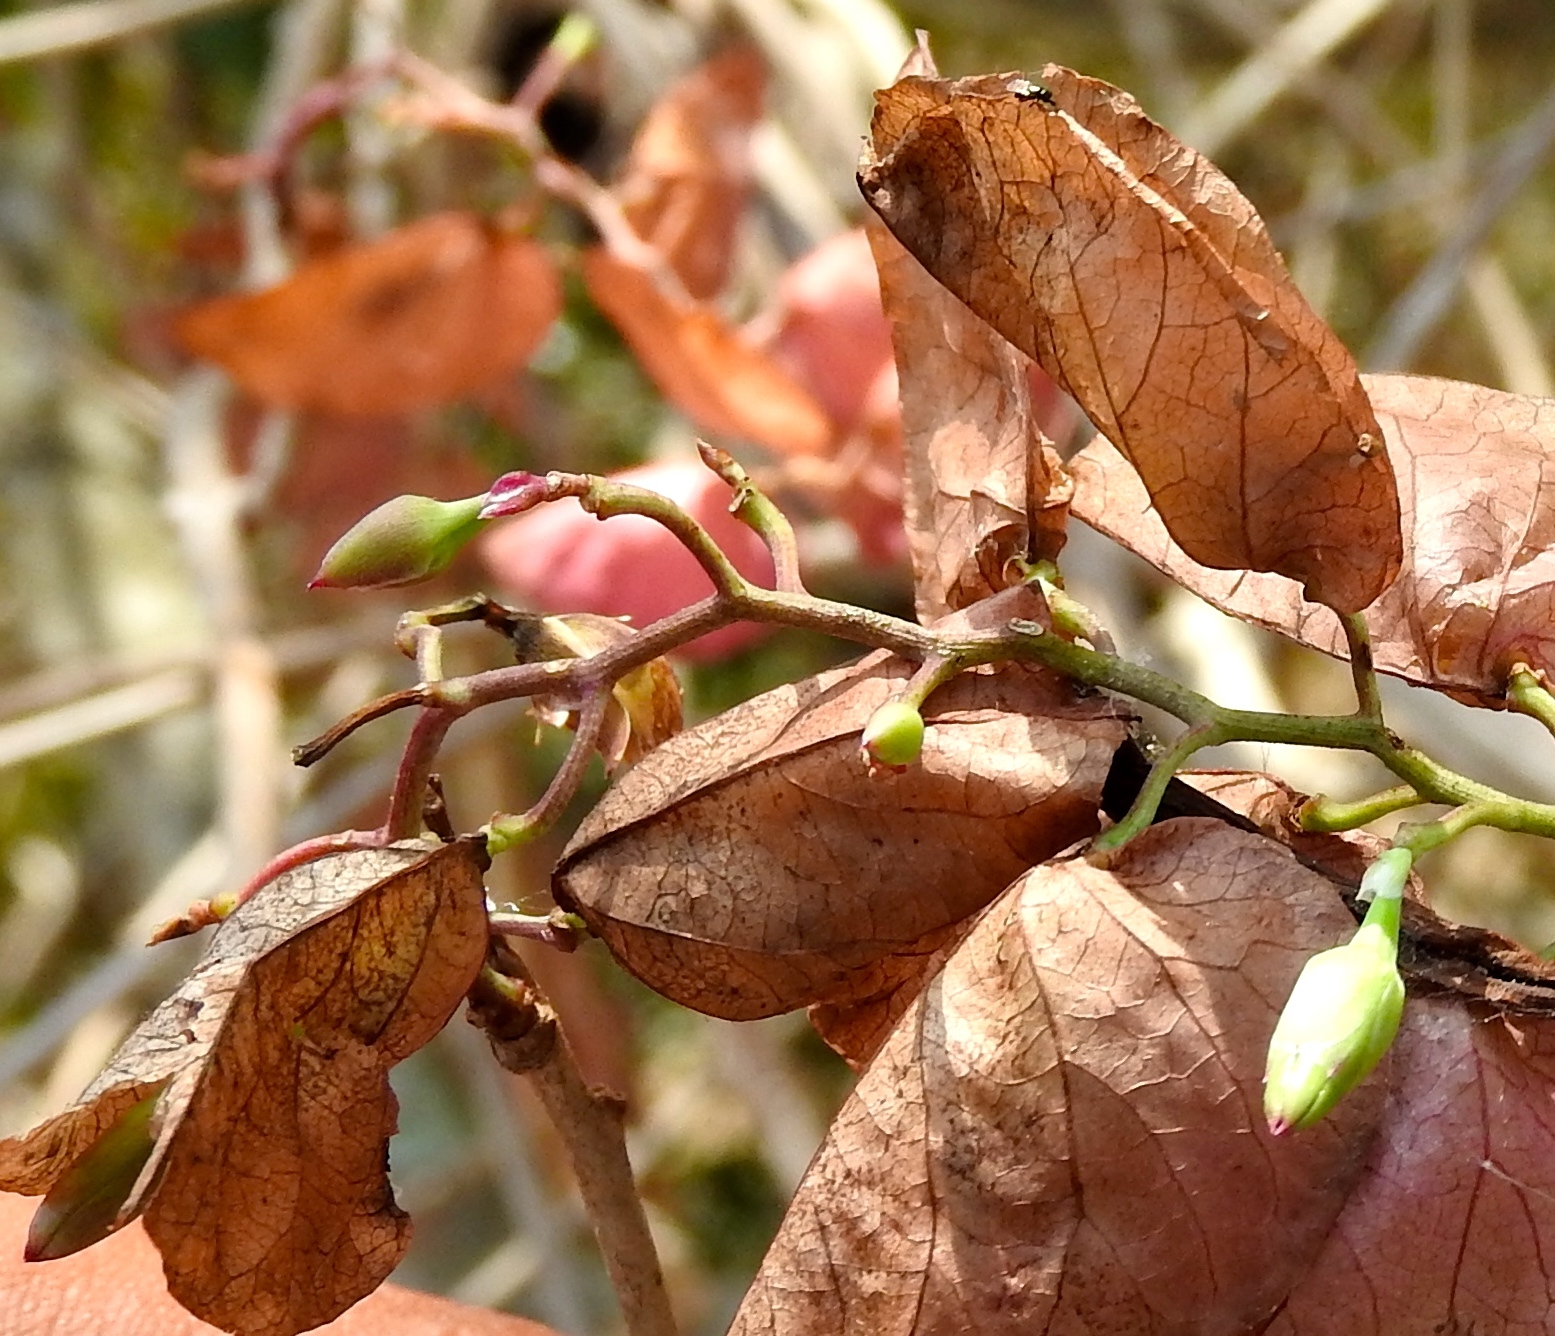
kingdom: Plantae
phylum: Tracheophyta
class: Magnoliopsida
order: Solanales
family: Convolvulaceae
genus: Ipomoea
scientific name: Ipomoea bracteata
